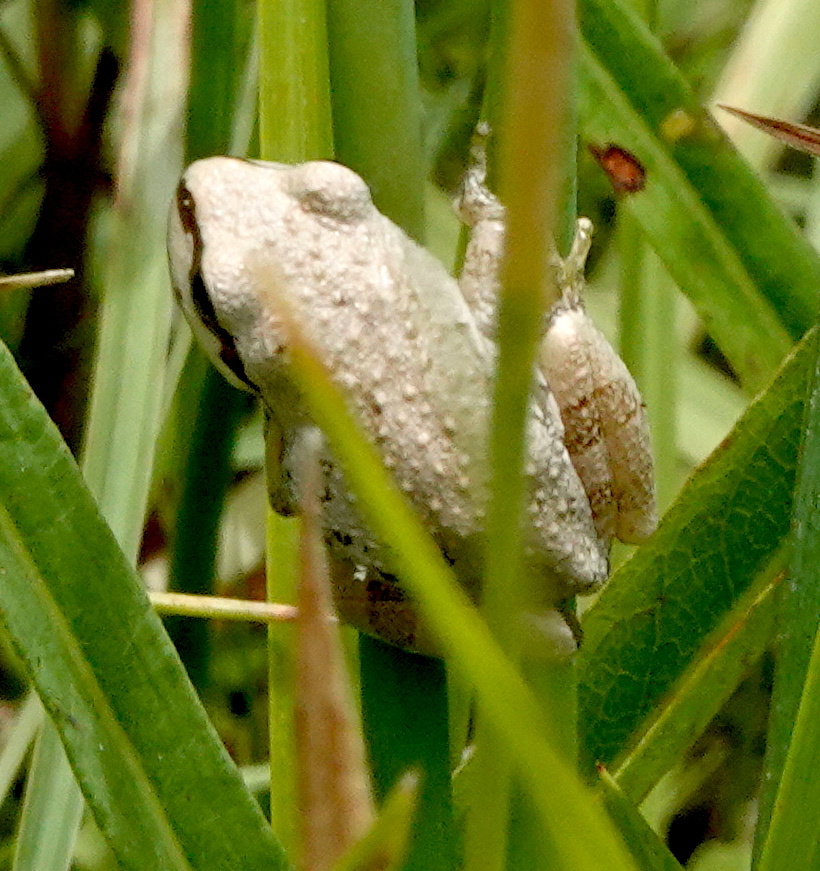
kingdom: Animalia
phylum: Chordata
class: Amphibia
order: Anura
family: Hylidae
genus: Pseudacris
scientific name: Pseudacris regilla
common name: Pacific chorus frog
